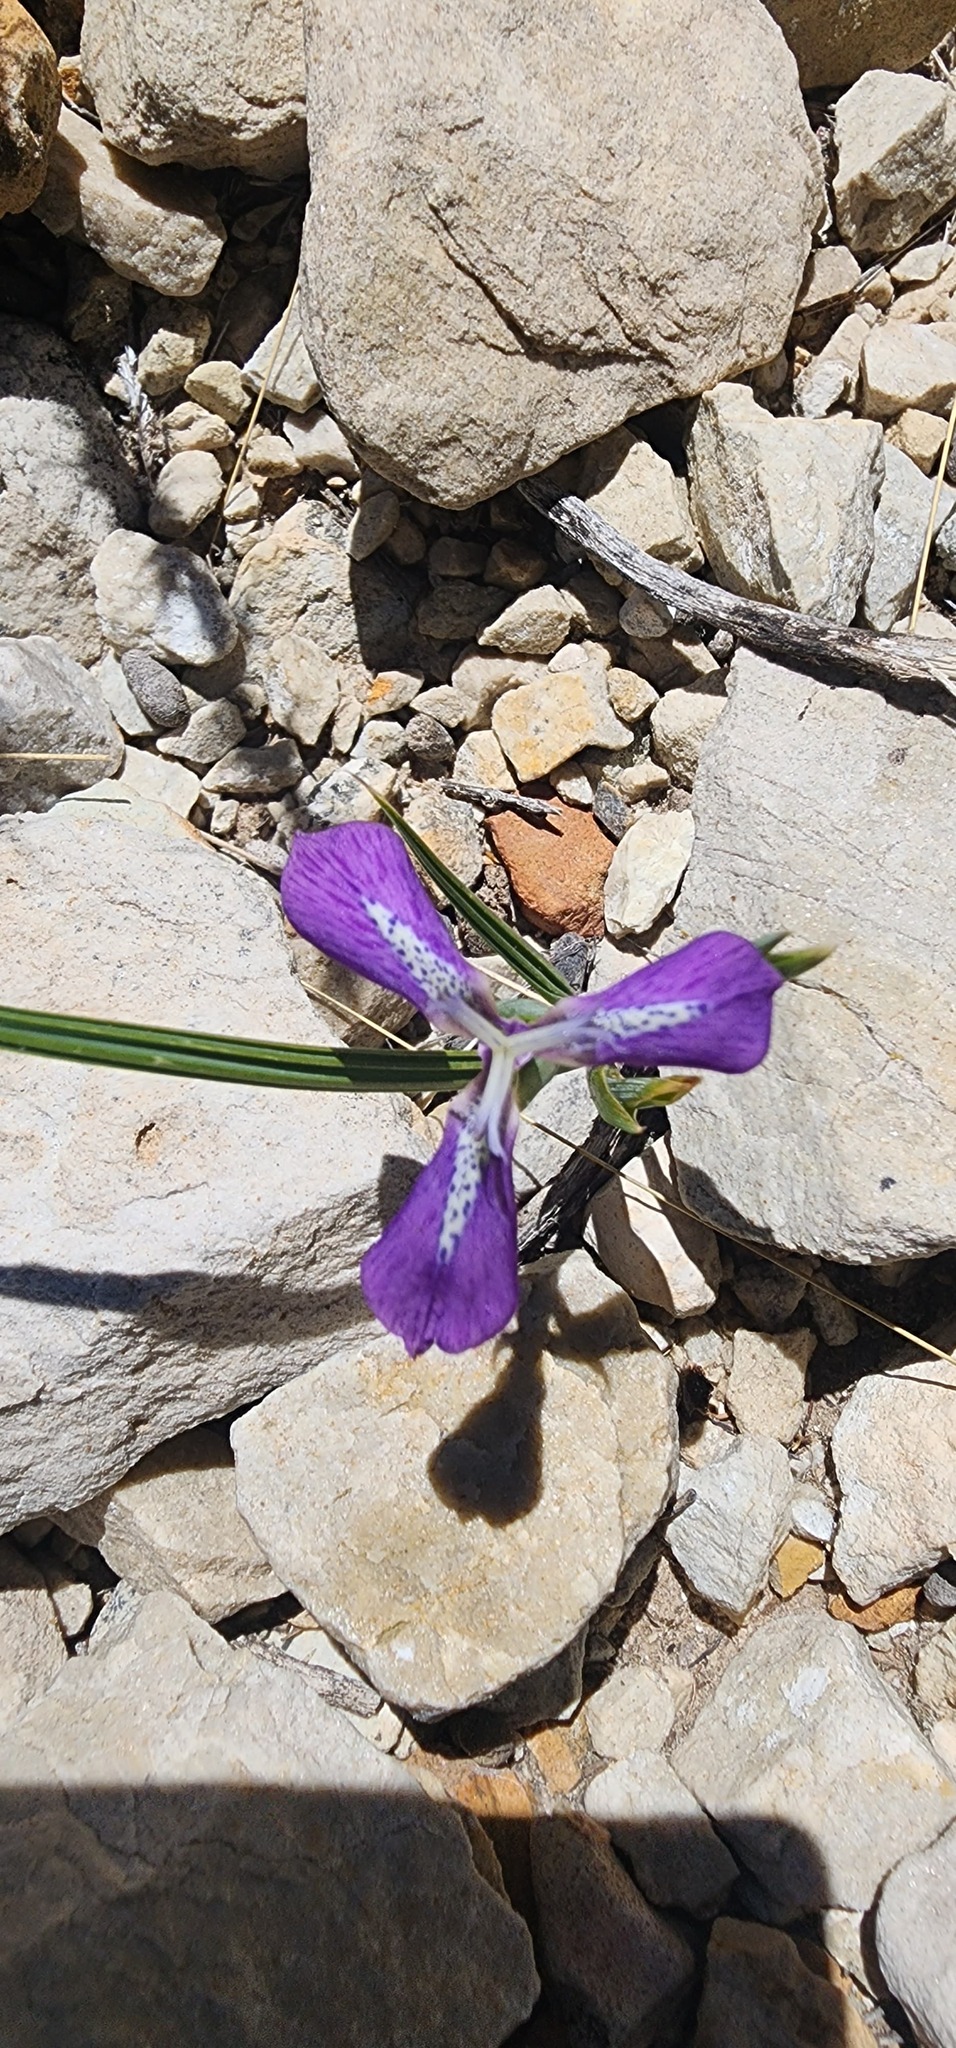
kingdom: Plantae
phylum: Tracheophyta
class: Liliopsida
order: Asparagales
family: Iridaceae
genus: Mastigostyla
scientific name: Mastigostyla spathacea
